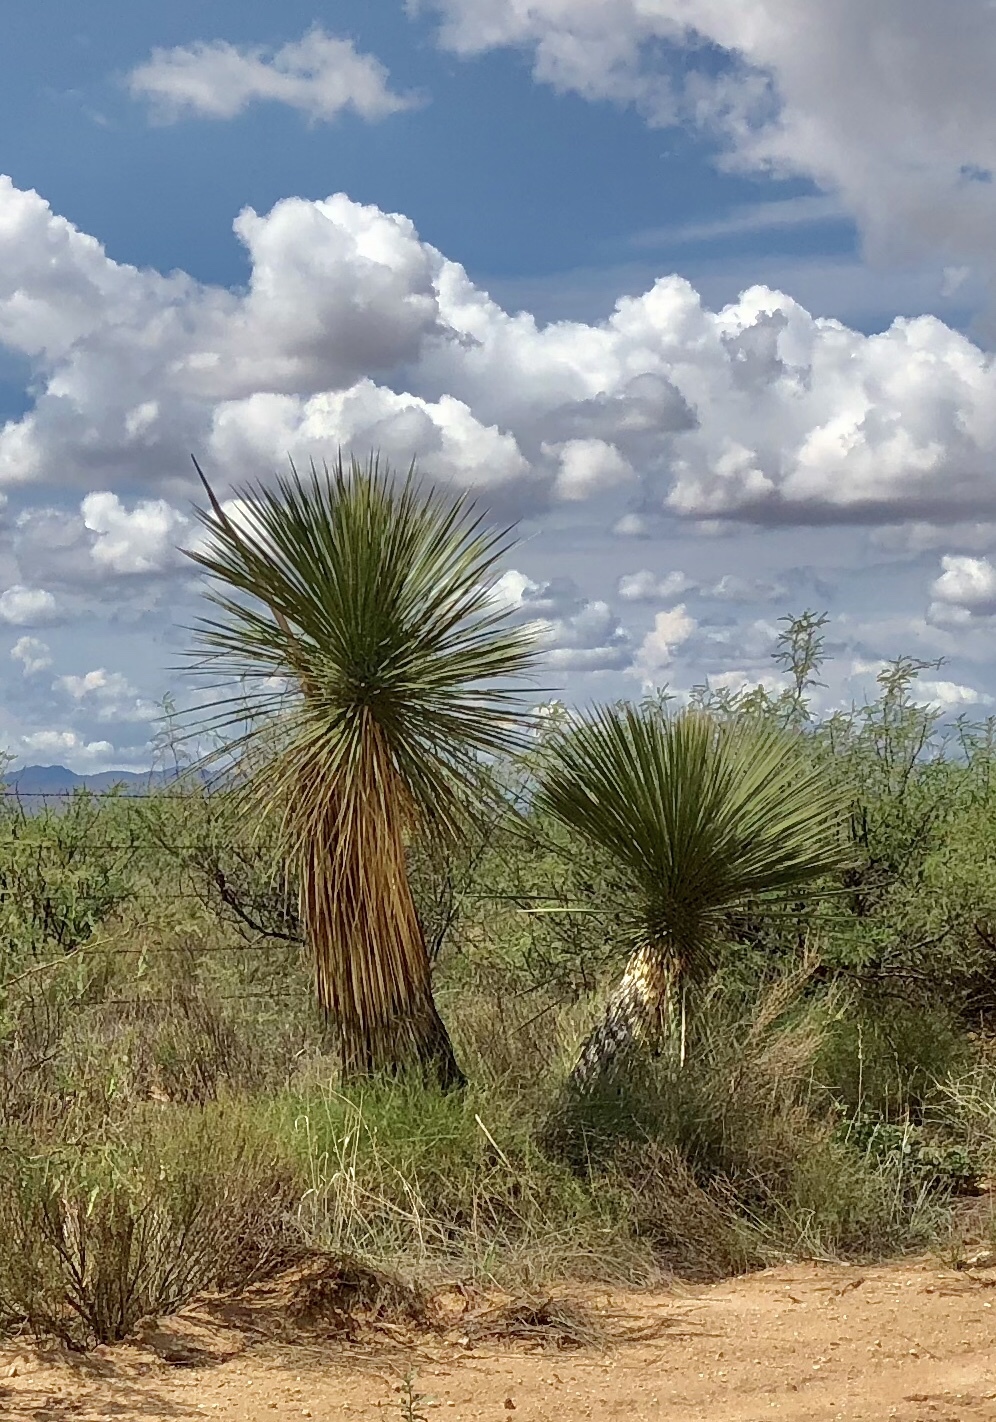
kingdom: Plantae
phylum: Tracheophyta
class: Liliopsida
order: Asparagales
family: Asparagaceae
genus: Yucca
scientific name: Yucca elata
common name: Palmella
